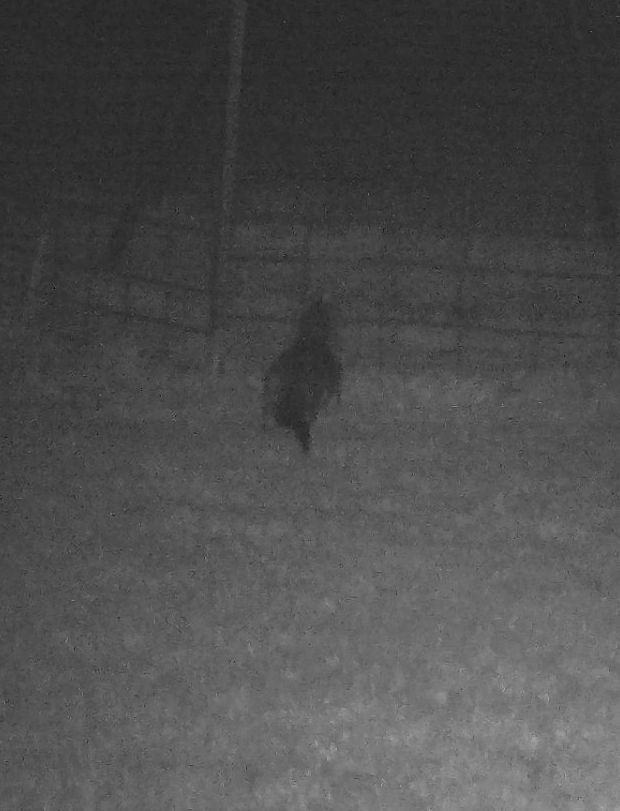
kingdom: Animalia
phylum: Chordata
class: Mammalia
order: Carnivora
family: Mustelidae
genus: Lontra
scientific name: Lontra canadensis
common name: North american river otter
